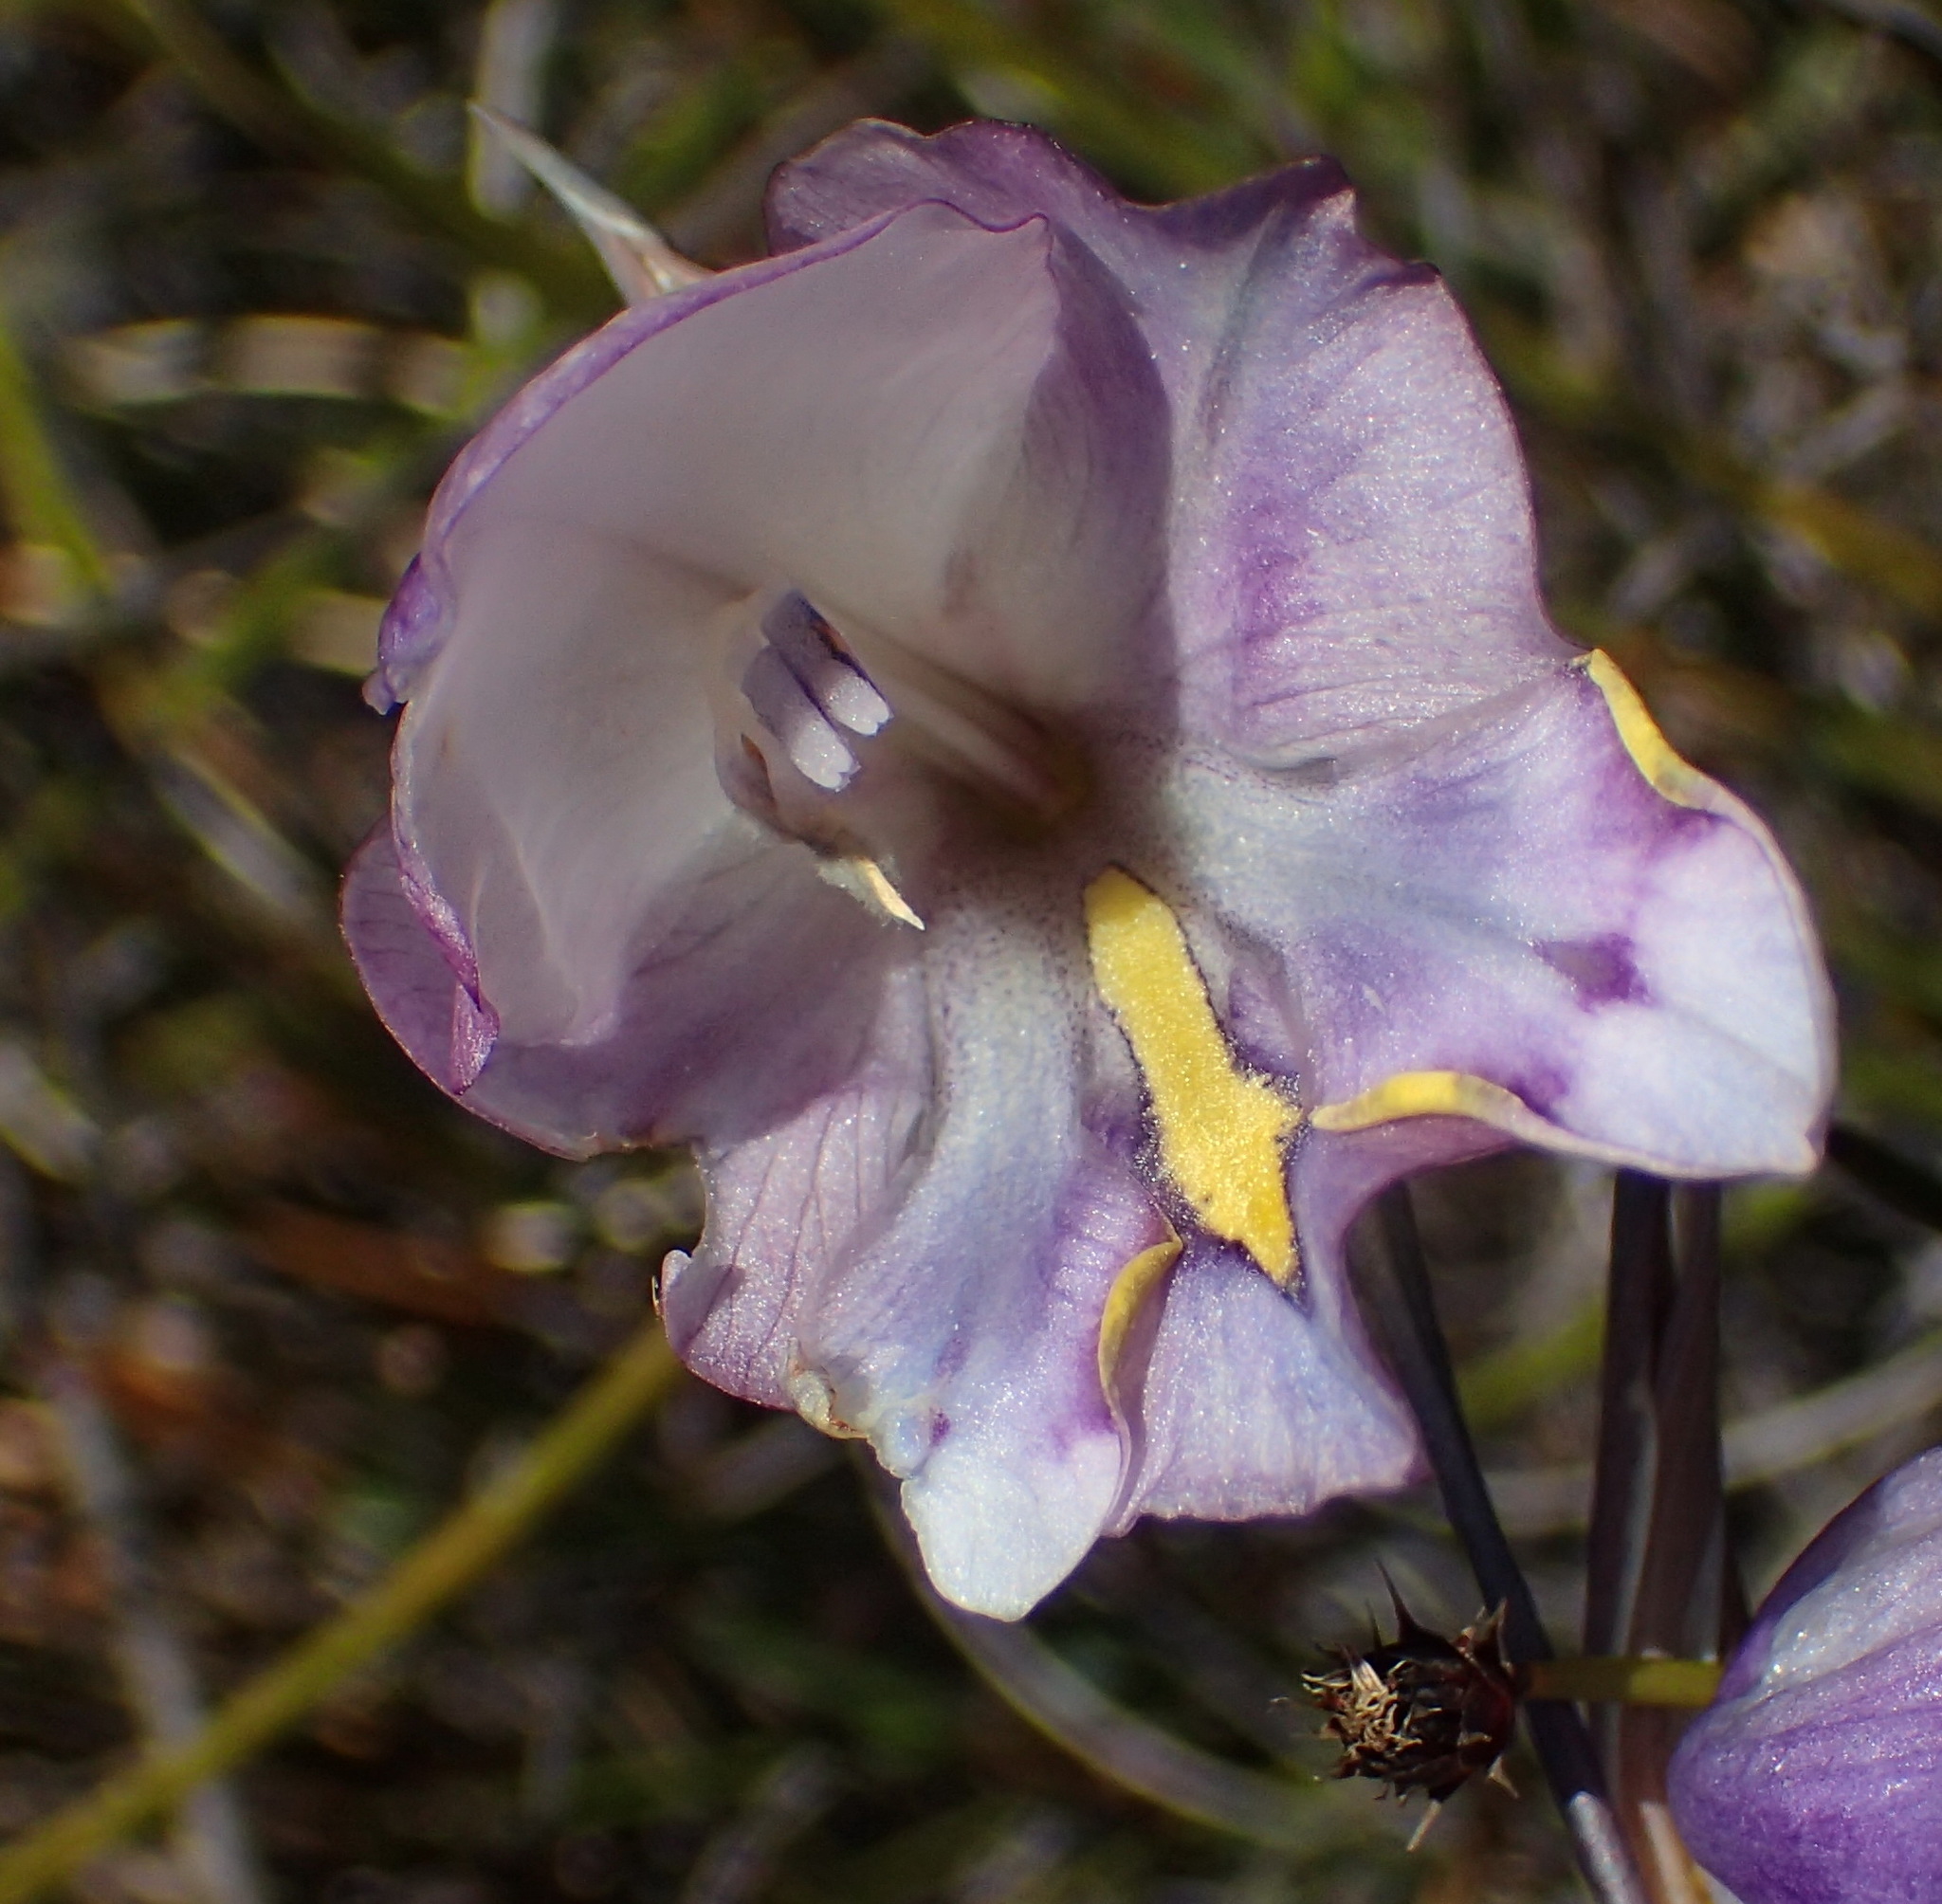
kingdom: Plantae
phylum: Tracheophyta
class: Liliopsida
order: Asparagales
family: Iridaceae
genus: Gladiolus
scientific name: Gladiolus patersoniae
